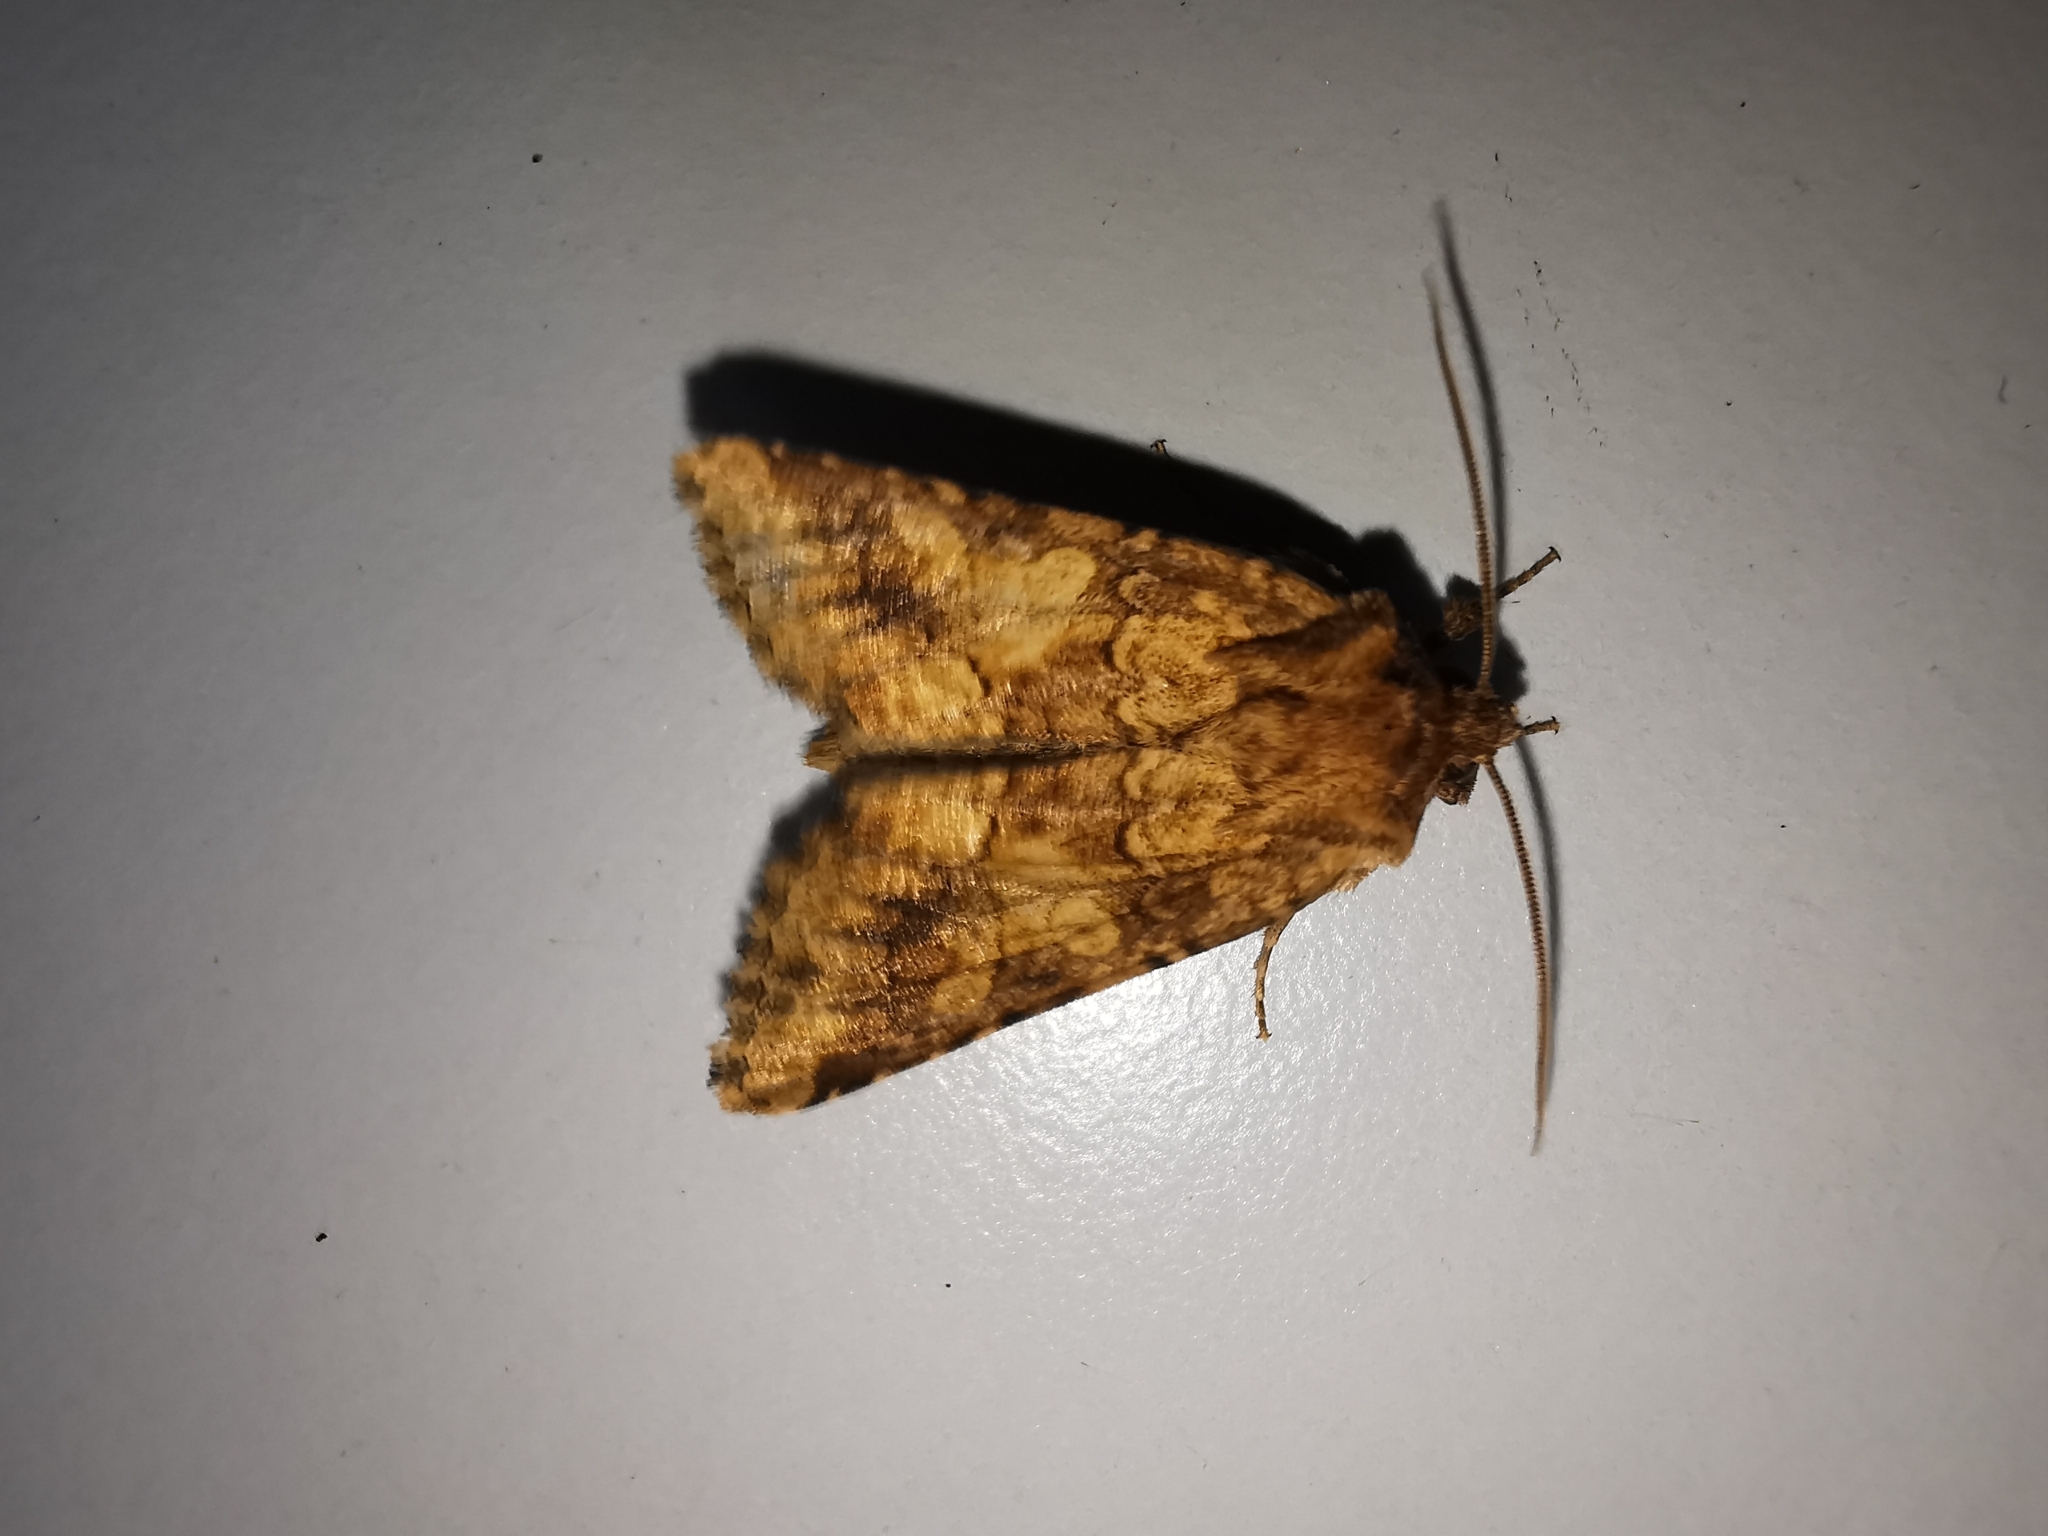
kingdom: Animalia
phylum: Arthropoda
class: Insecta
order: Lepidoptera
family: Noctuidae
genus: Conisania
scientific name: Conisania luteago
